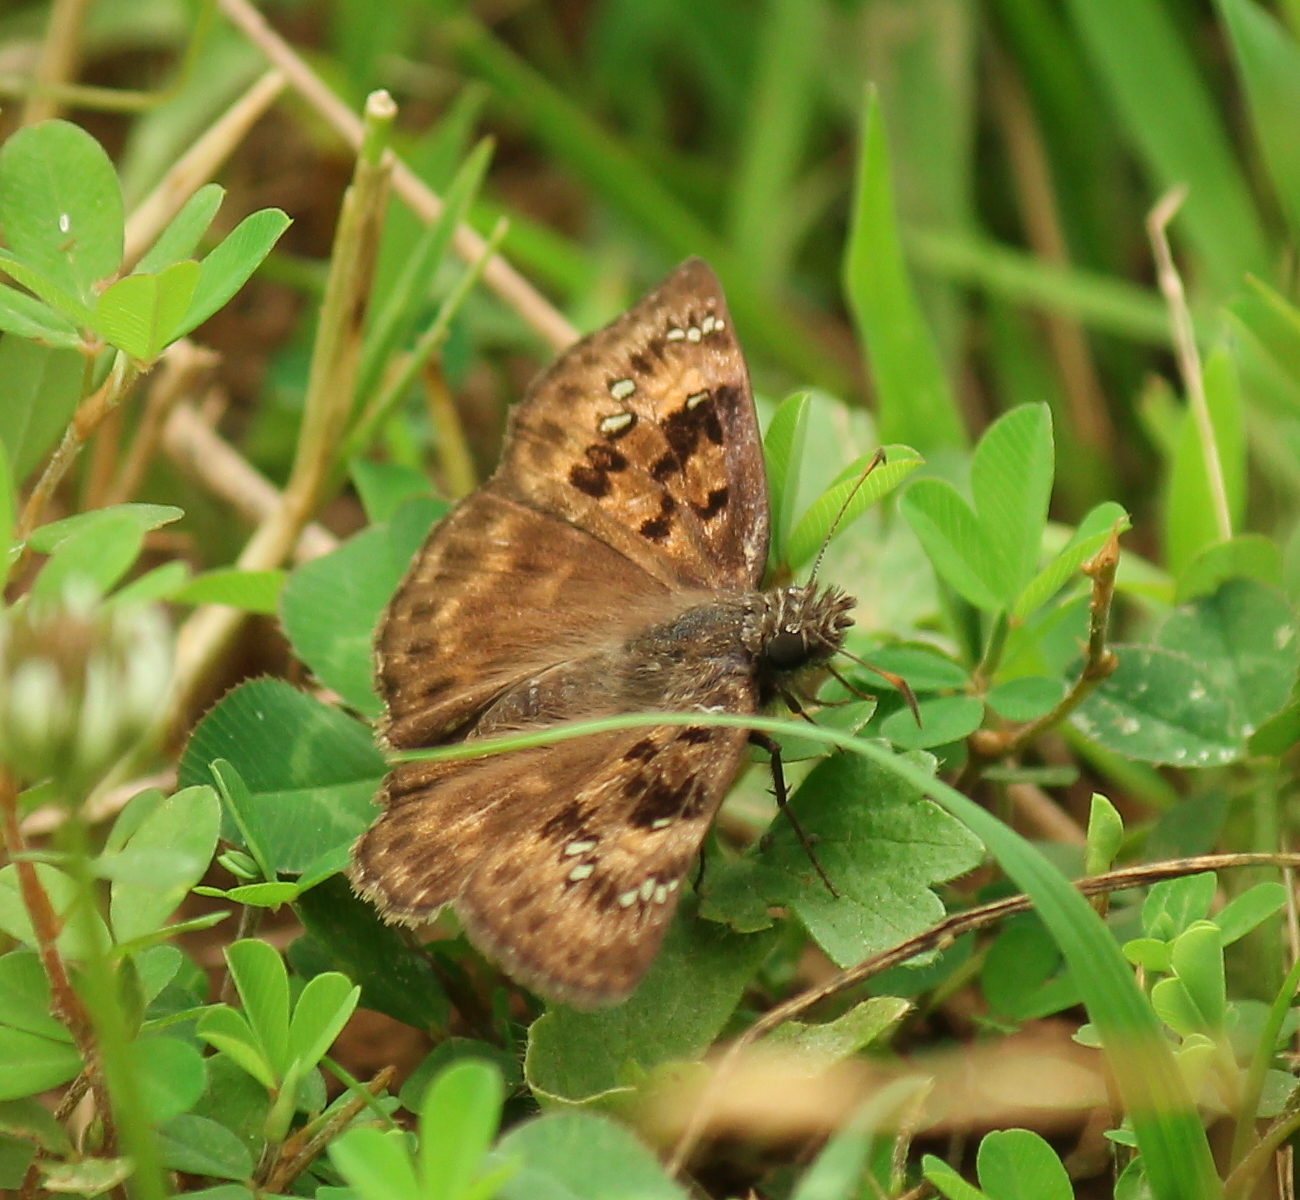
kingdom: Animalia
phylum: Arthropoda
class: Insecta
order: Lepidoptera
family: Hesperiidae
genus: Erynnis
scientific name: Erynnis horatius
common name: Horace's duskywing
